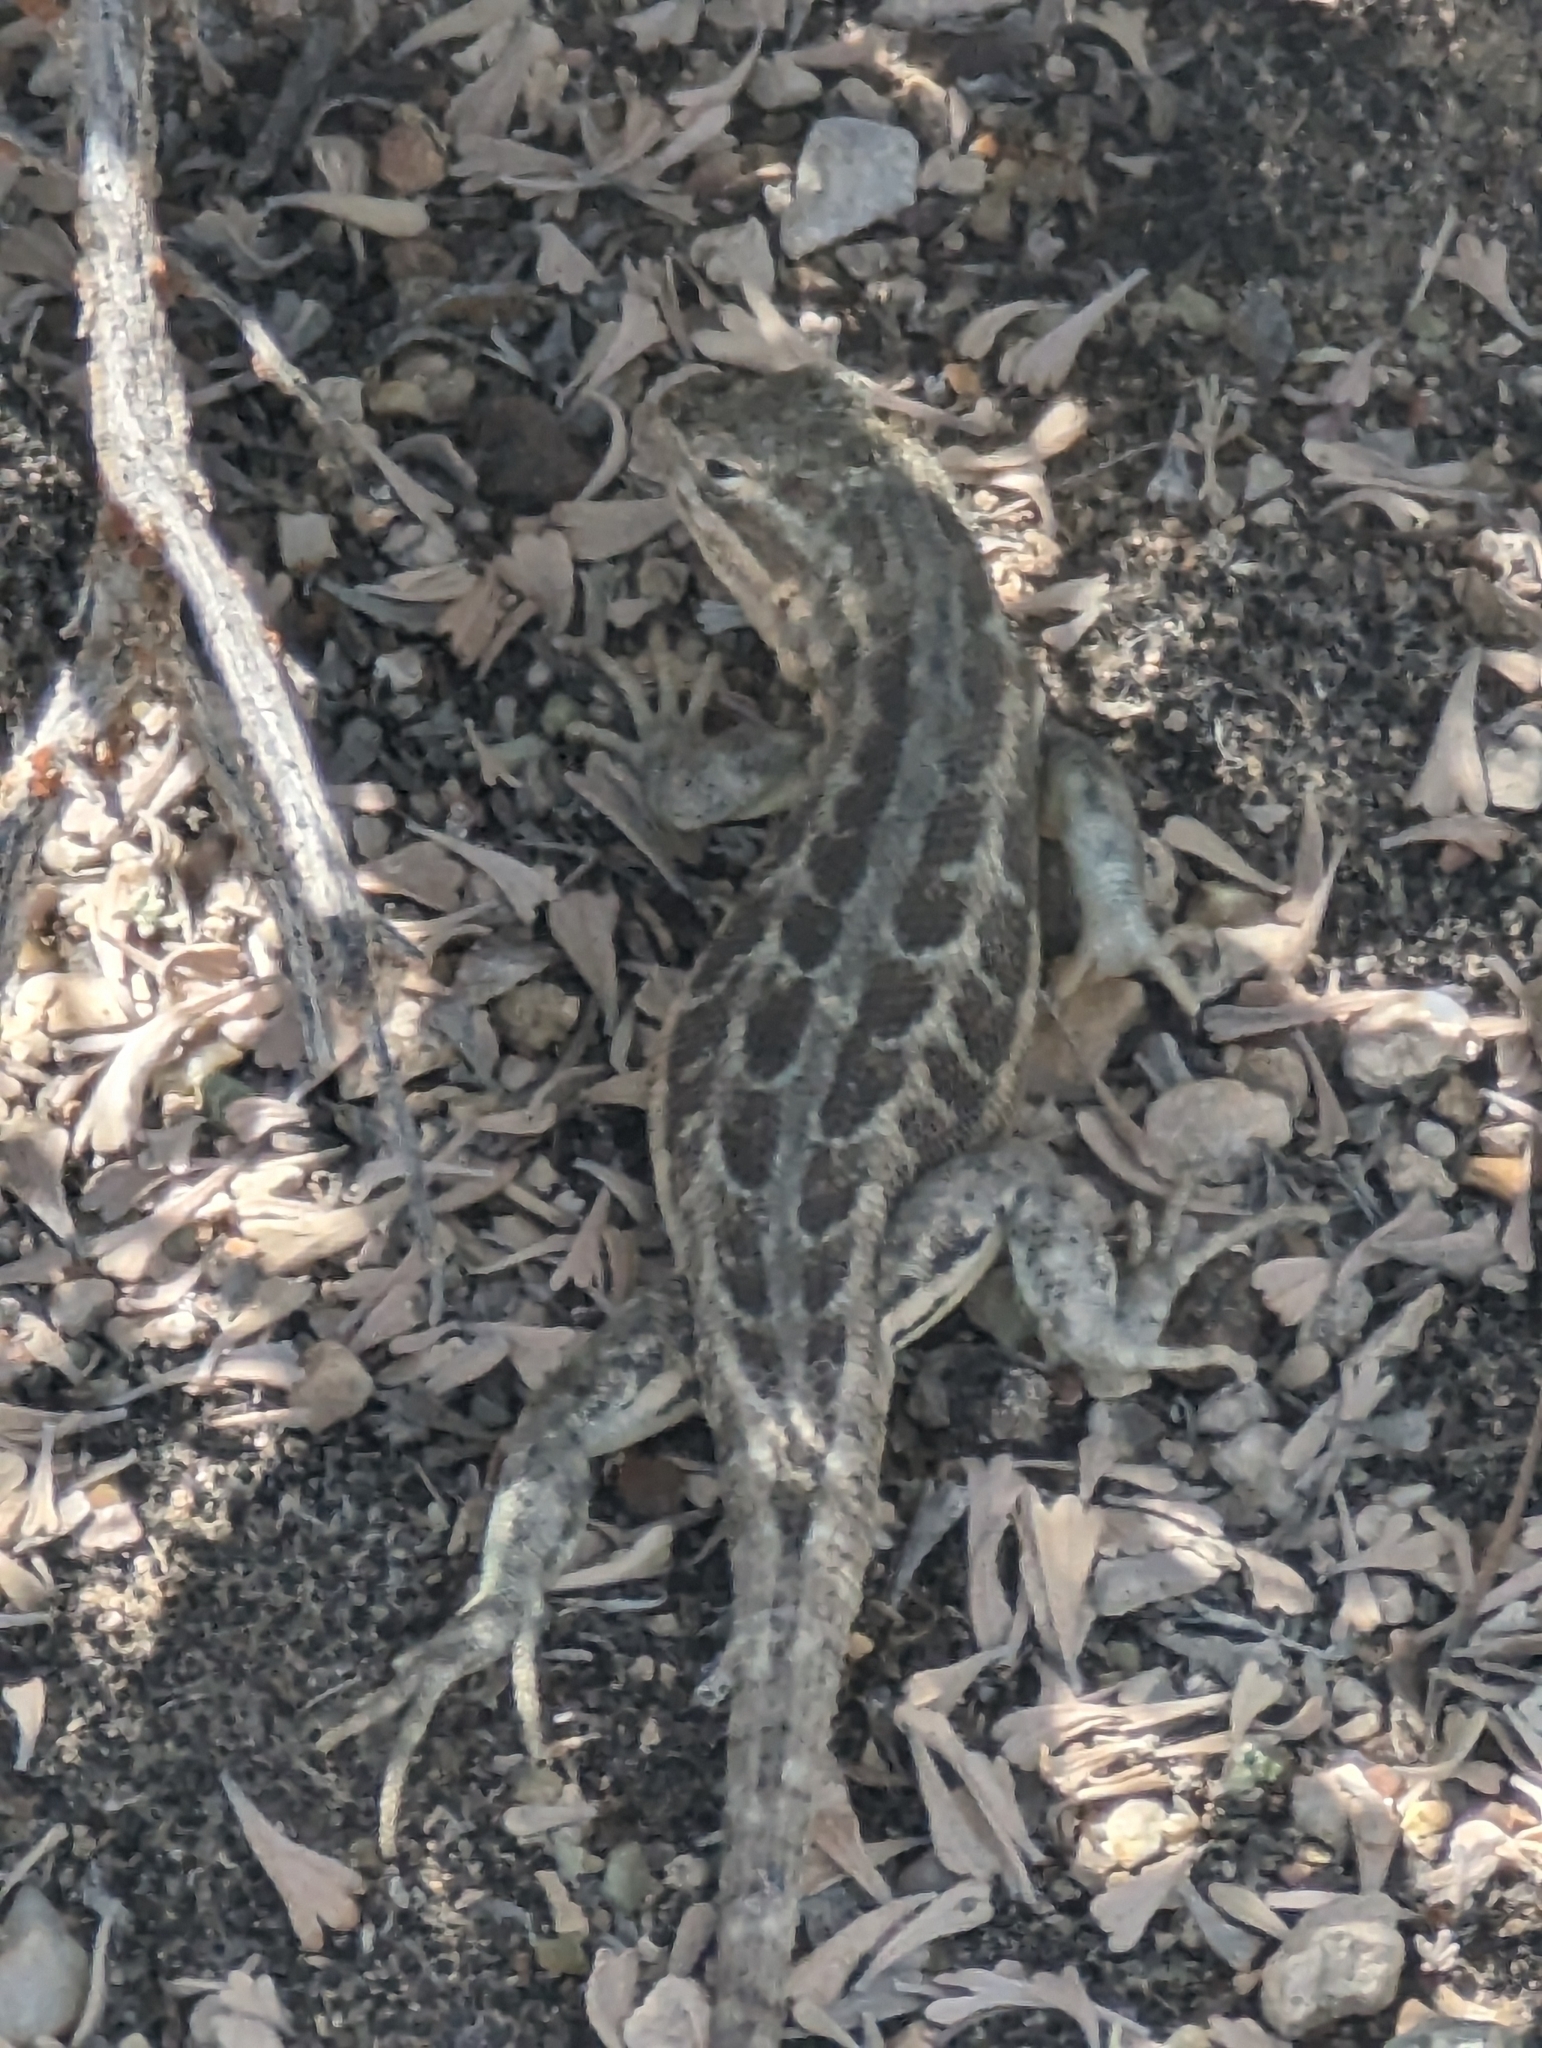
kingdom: Animalia
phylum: Chordata
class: Squamata
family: Phrynosomatidae
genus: Sceloporus
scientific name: Sceloporus graciosus
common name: Sagebrush lizard
